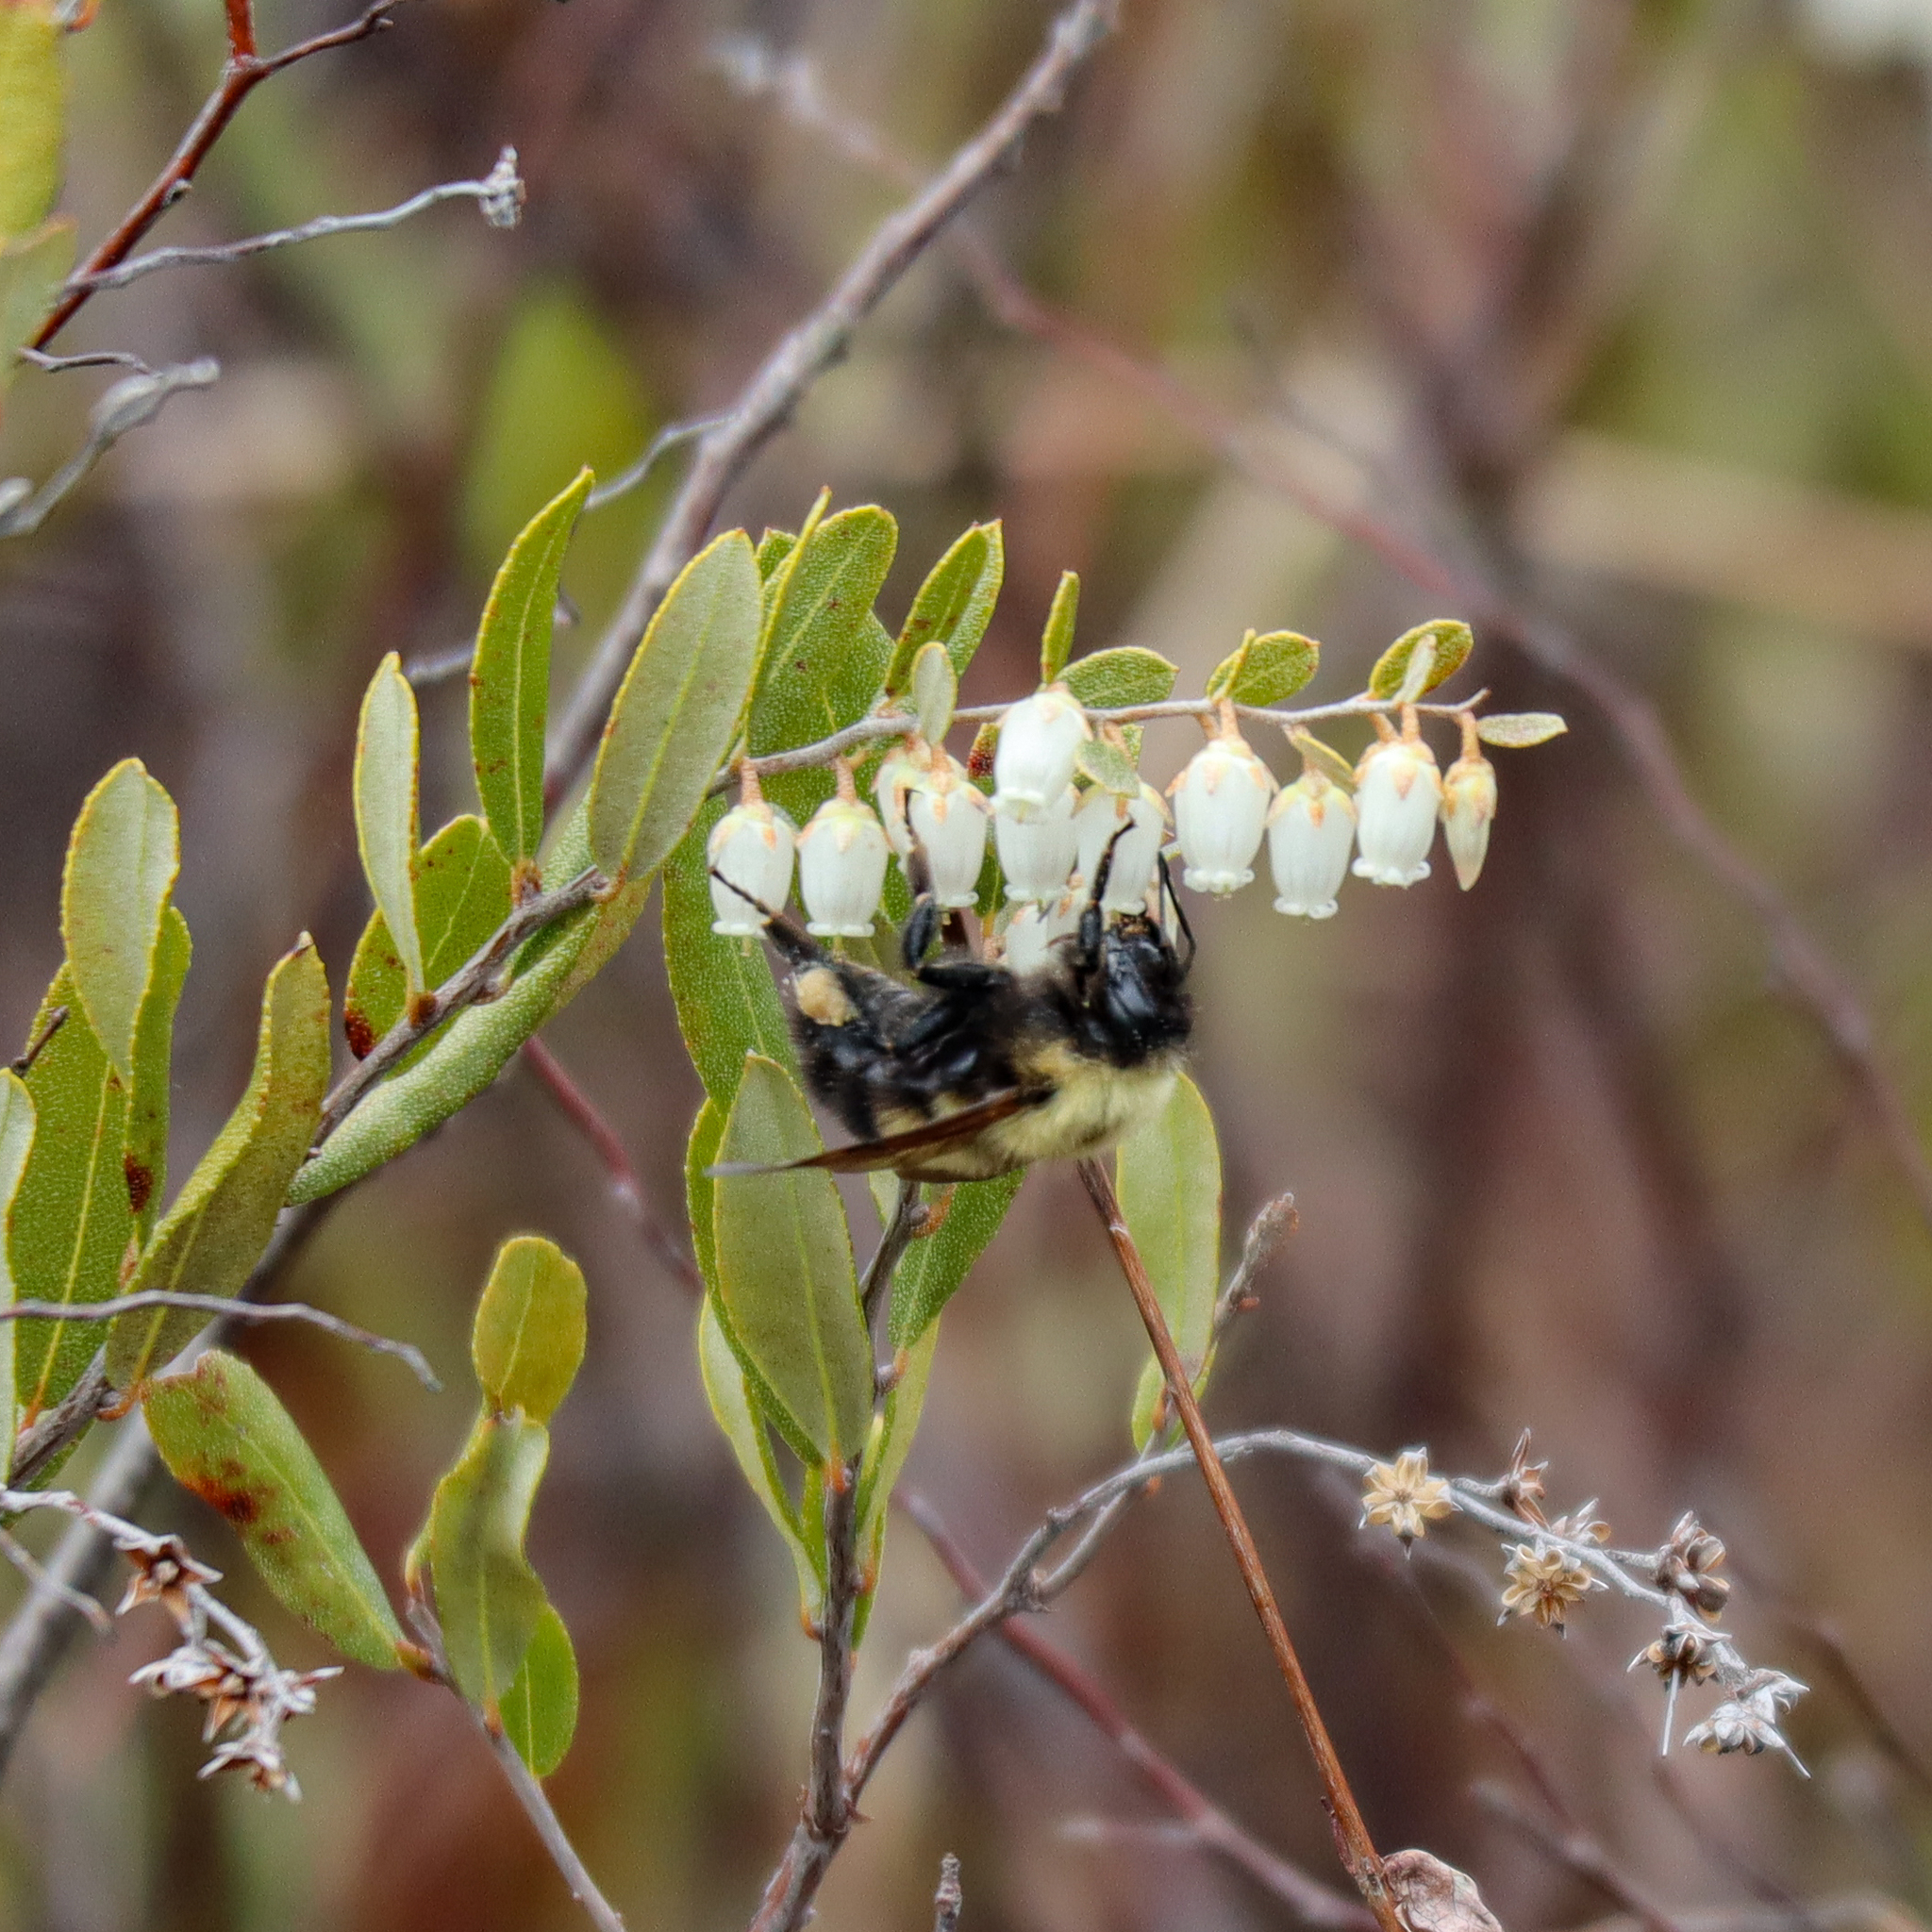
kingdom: Animalia
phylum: Arthropoda
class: Insecta
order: Hymenoptera
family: Apidae
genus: Bombus
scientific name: Bombus bimaculatus
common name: Two-spotted bumble bee
